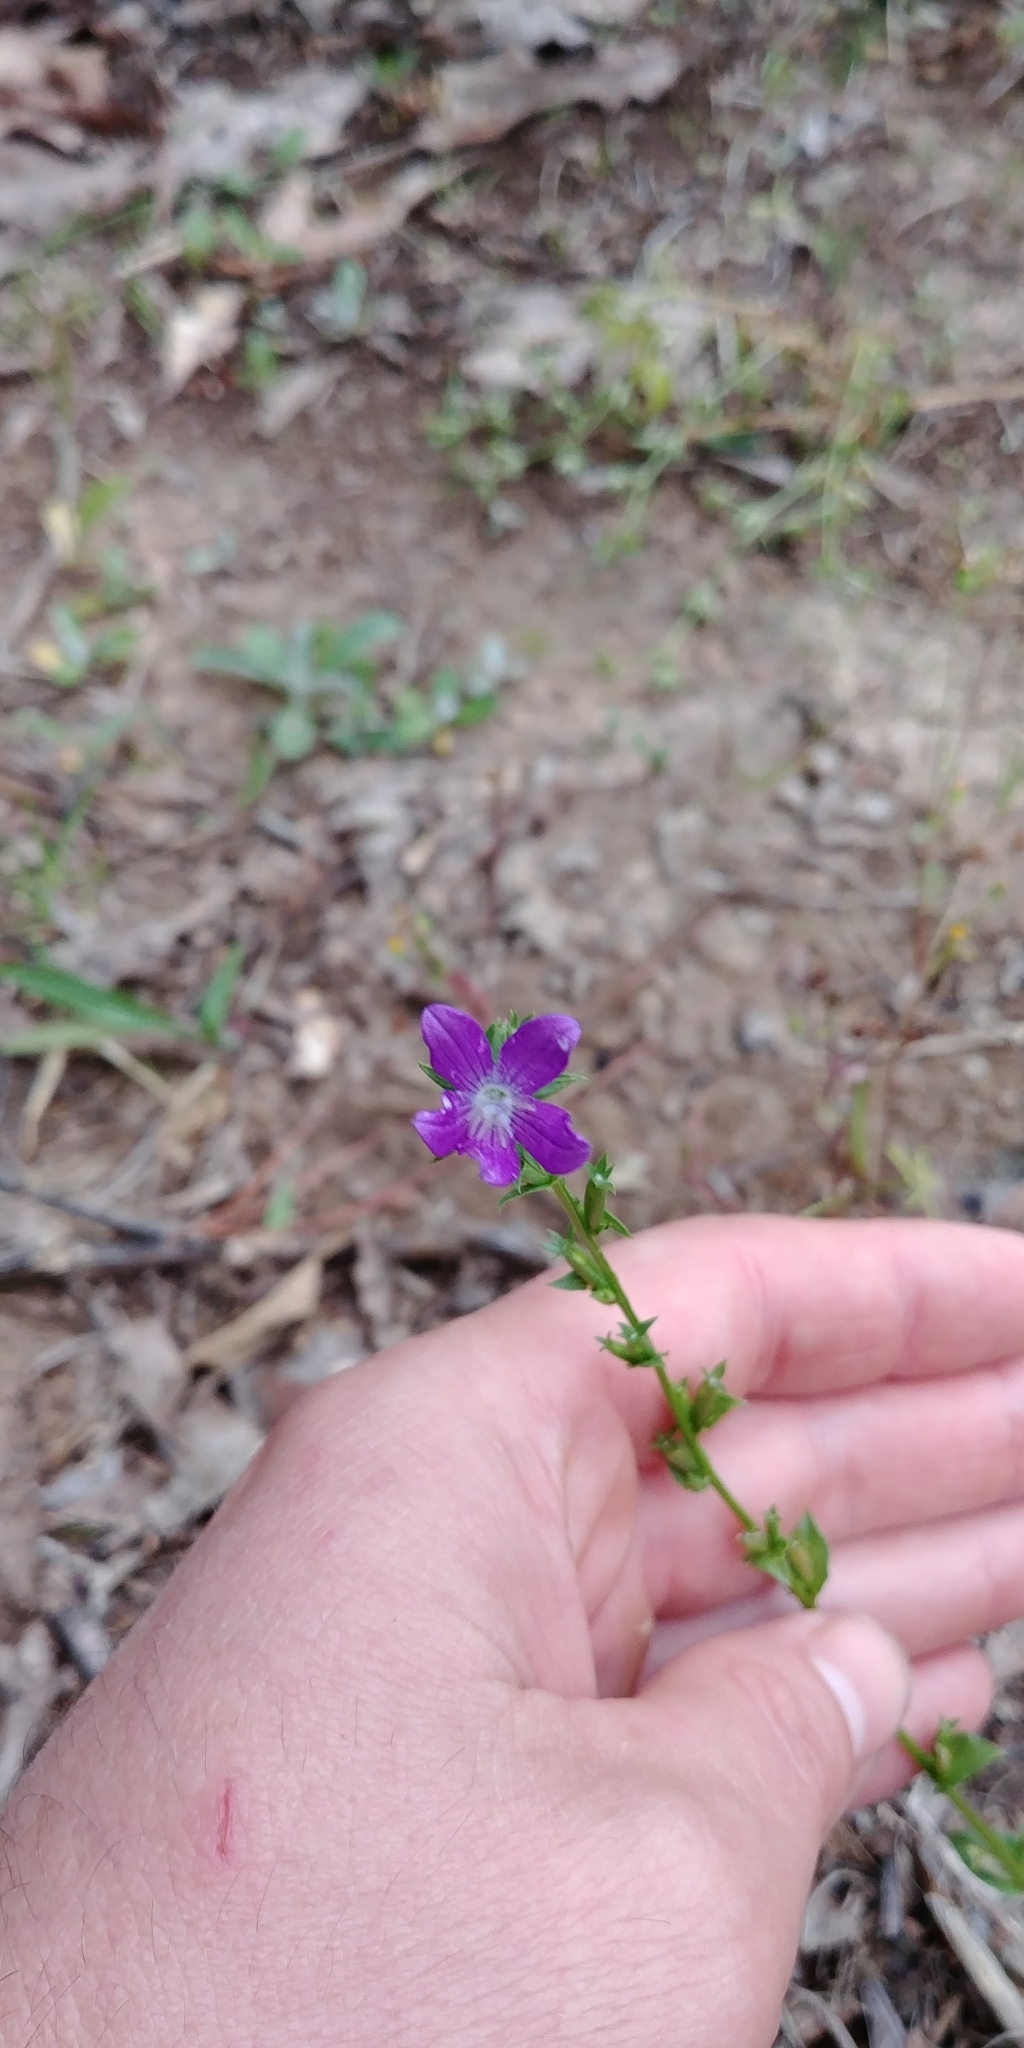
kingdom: Plantae
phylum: Tracheophyta
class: Magnoliopsida
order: Asterales
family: Campanulaceae
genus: Triodanis
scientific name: Triodanis biflora
